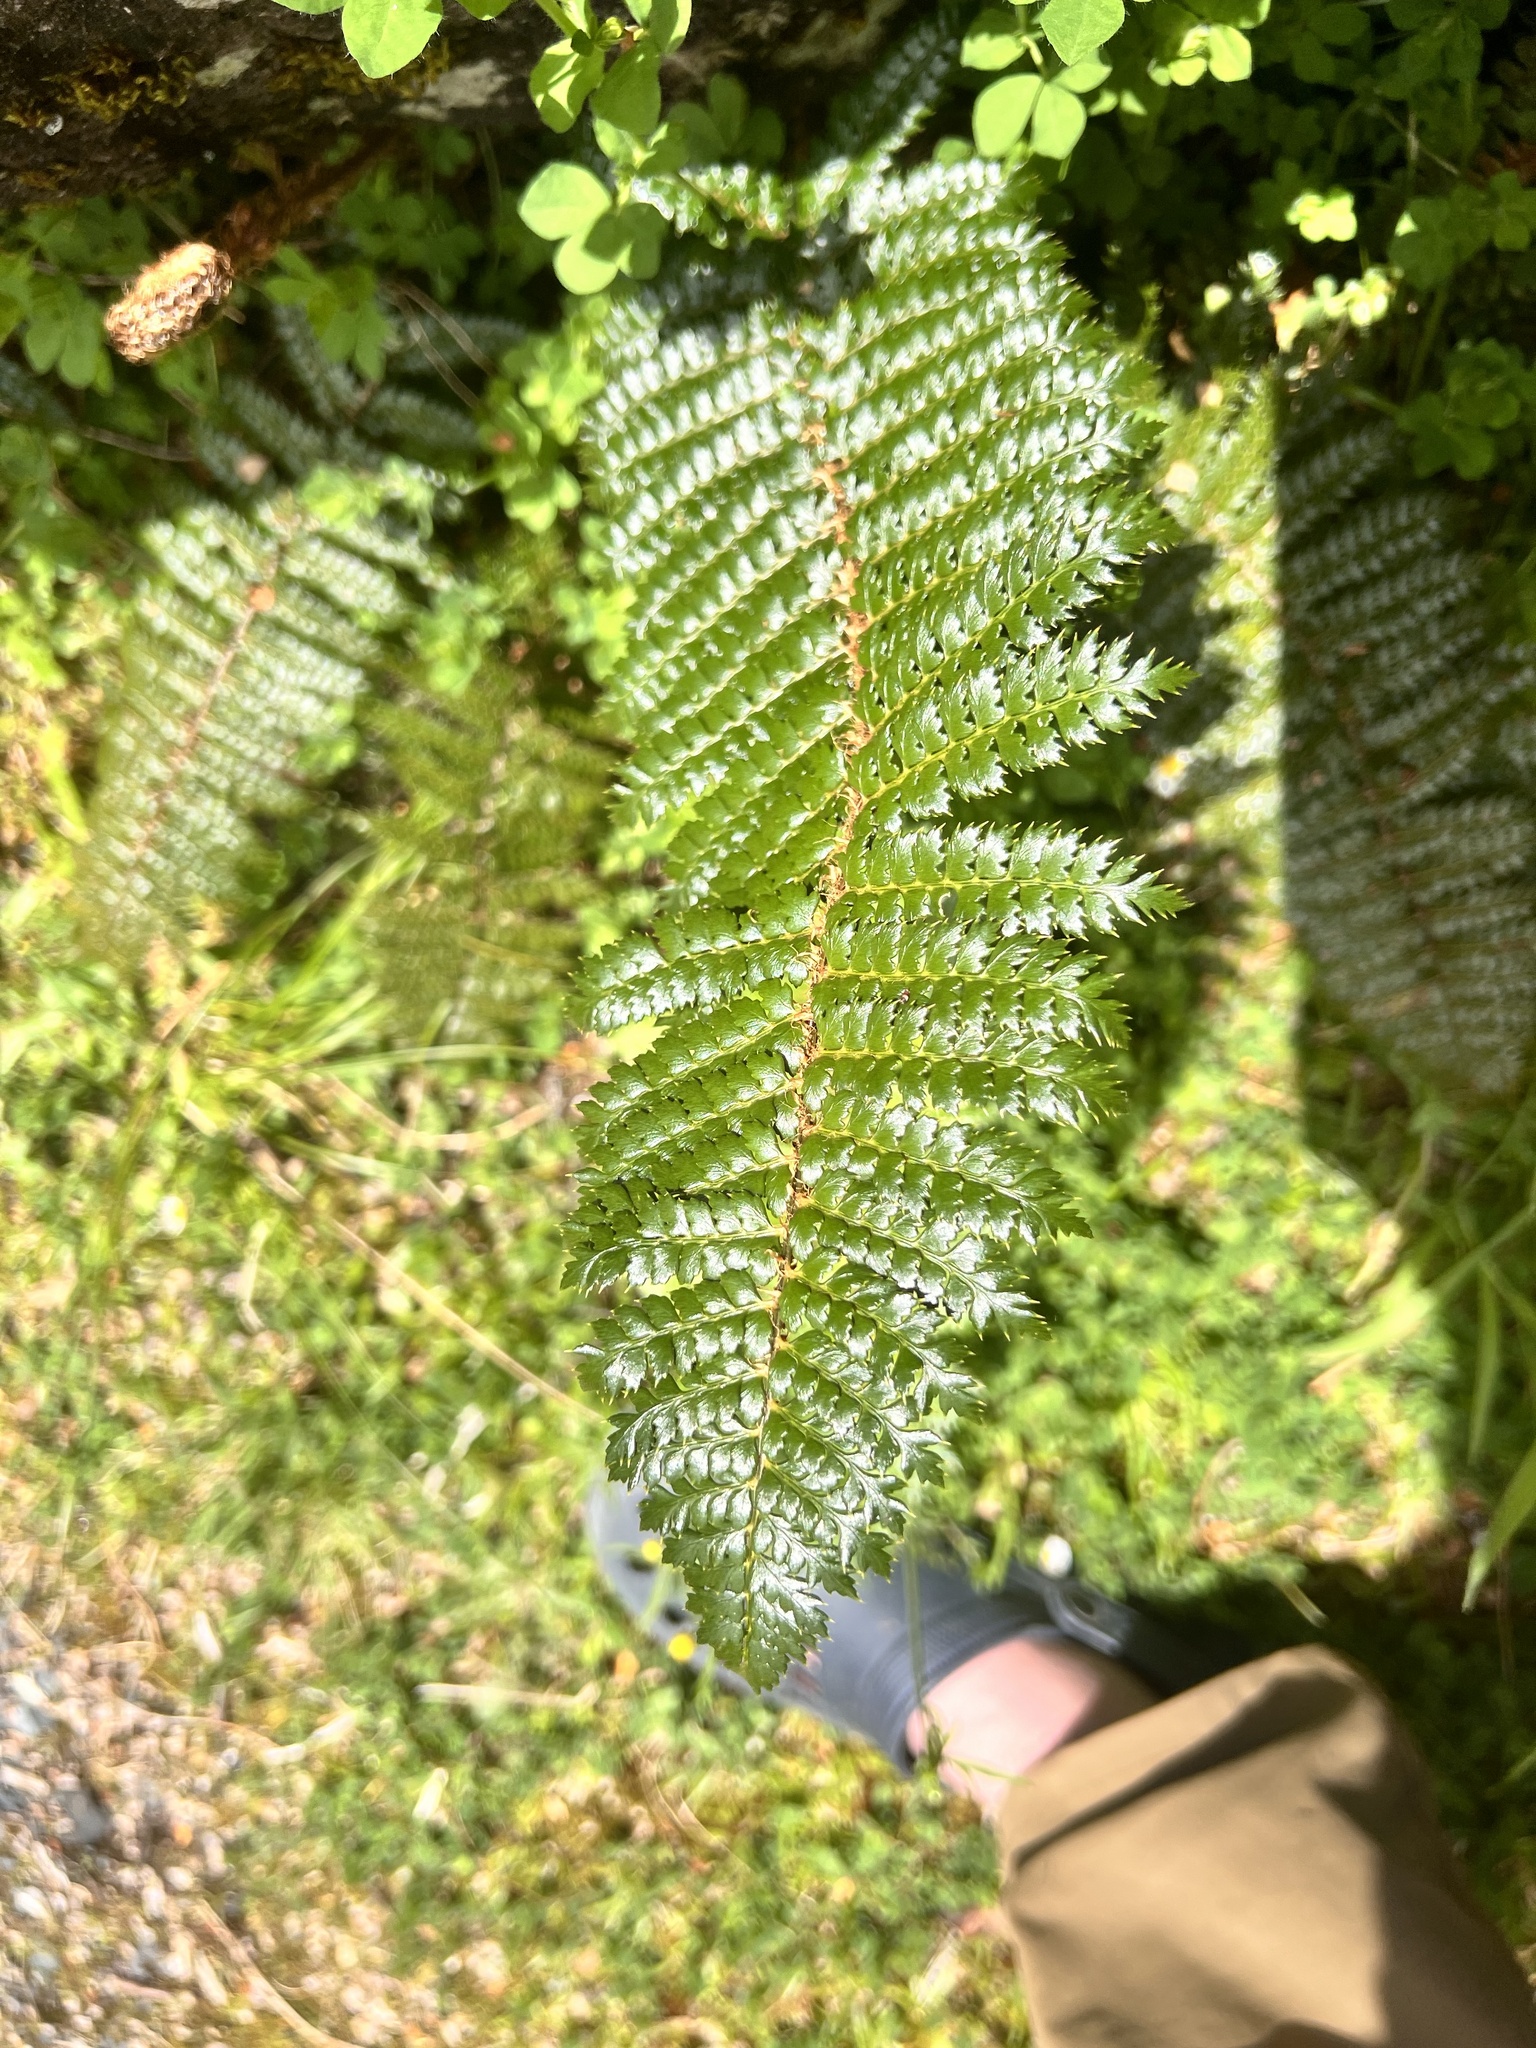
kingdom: Plantae
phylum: Tracheophyta
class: Polypodiopsida
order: Polypodiales
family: Dryopteridaceae
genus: Polystichum
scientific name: Polystichum vestitum
